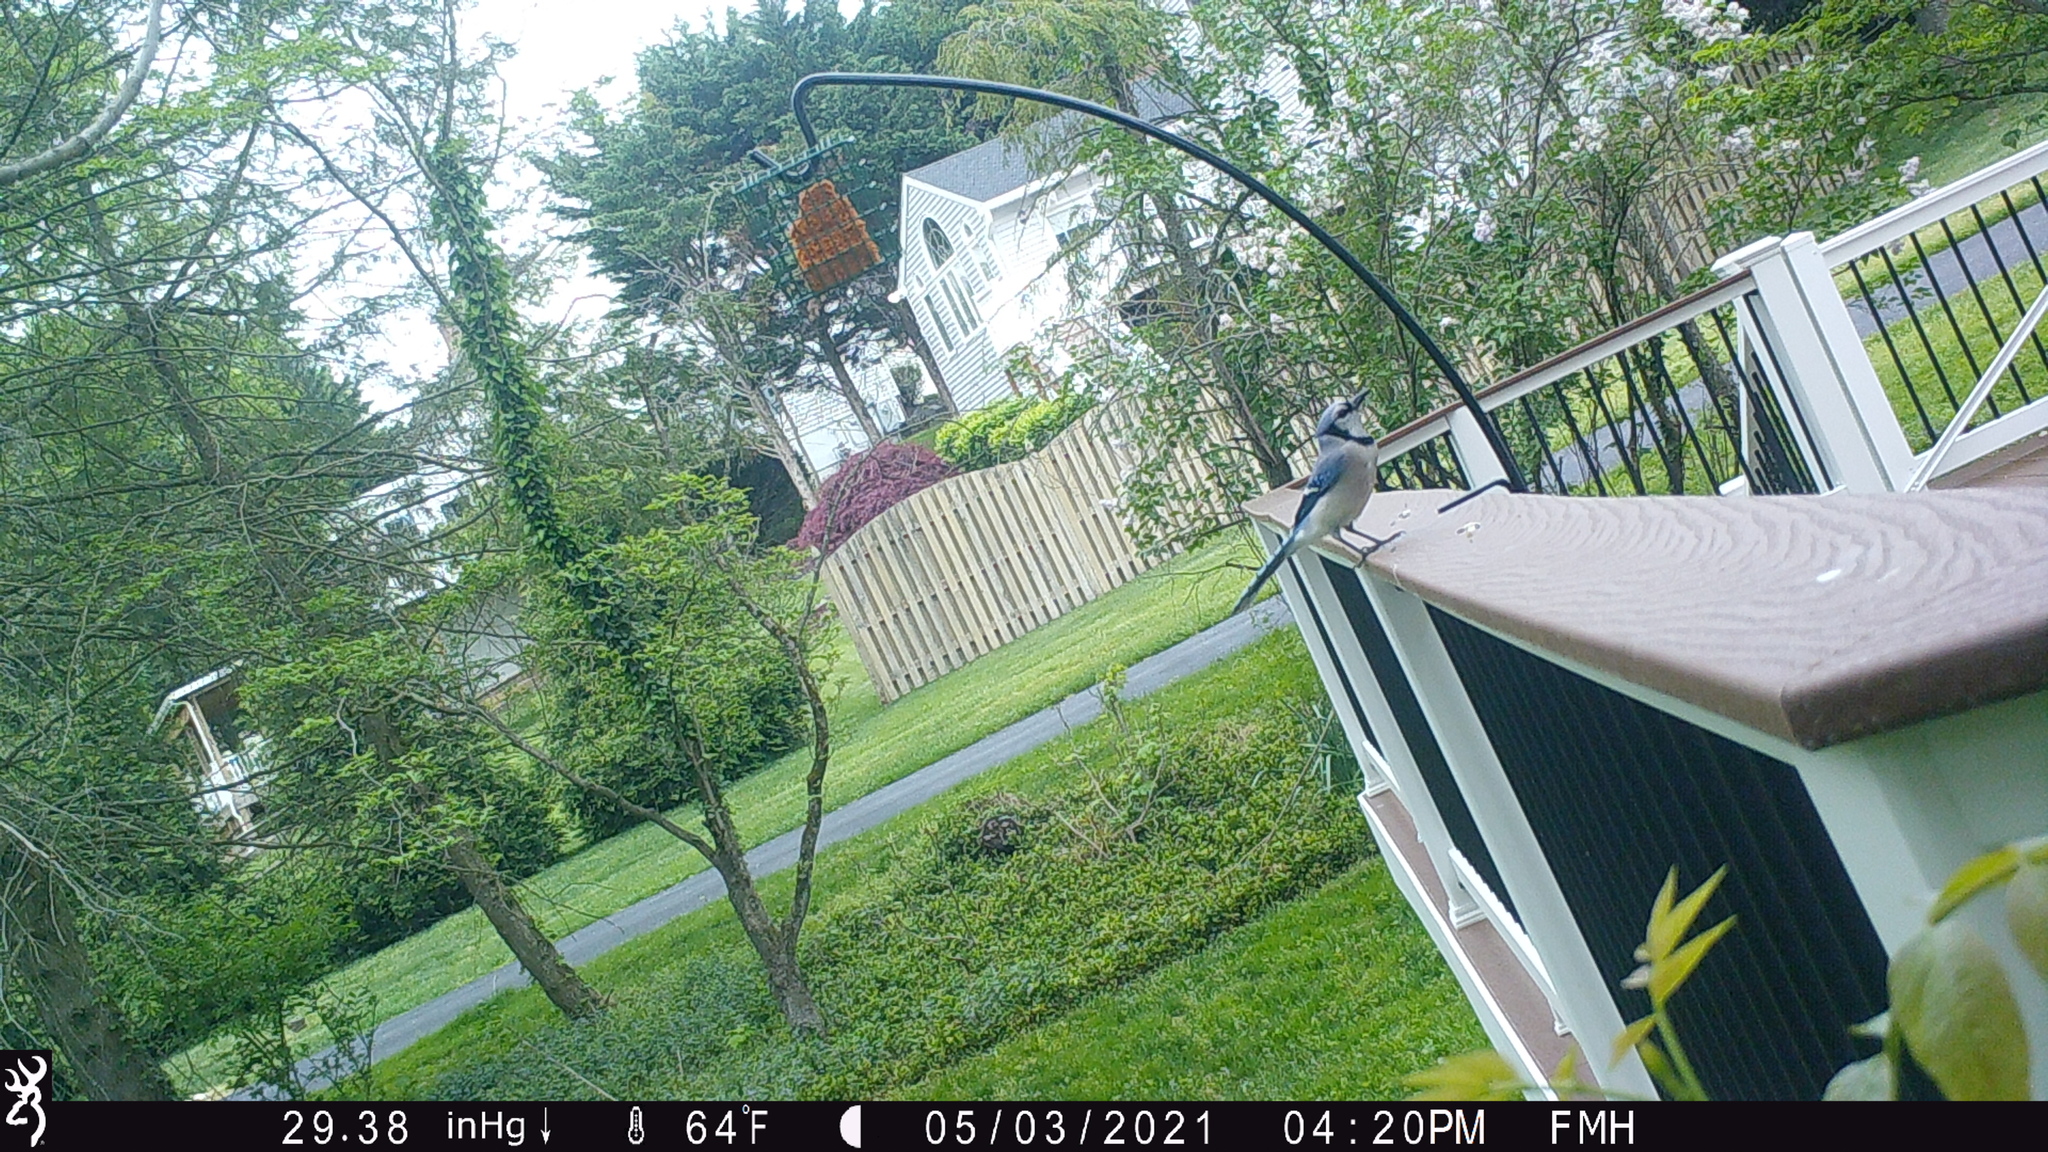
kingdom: Animalia
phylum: Chordata
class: Aves
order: Passeriformes
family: Corvidae
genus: Cyanocitta
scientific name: Cyanocitta cristata
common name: Blue jay
